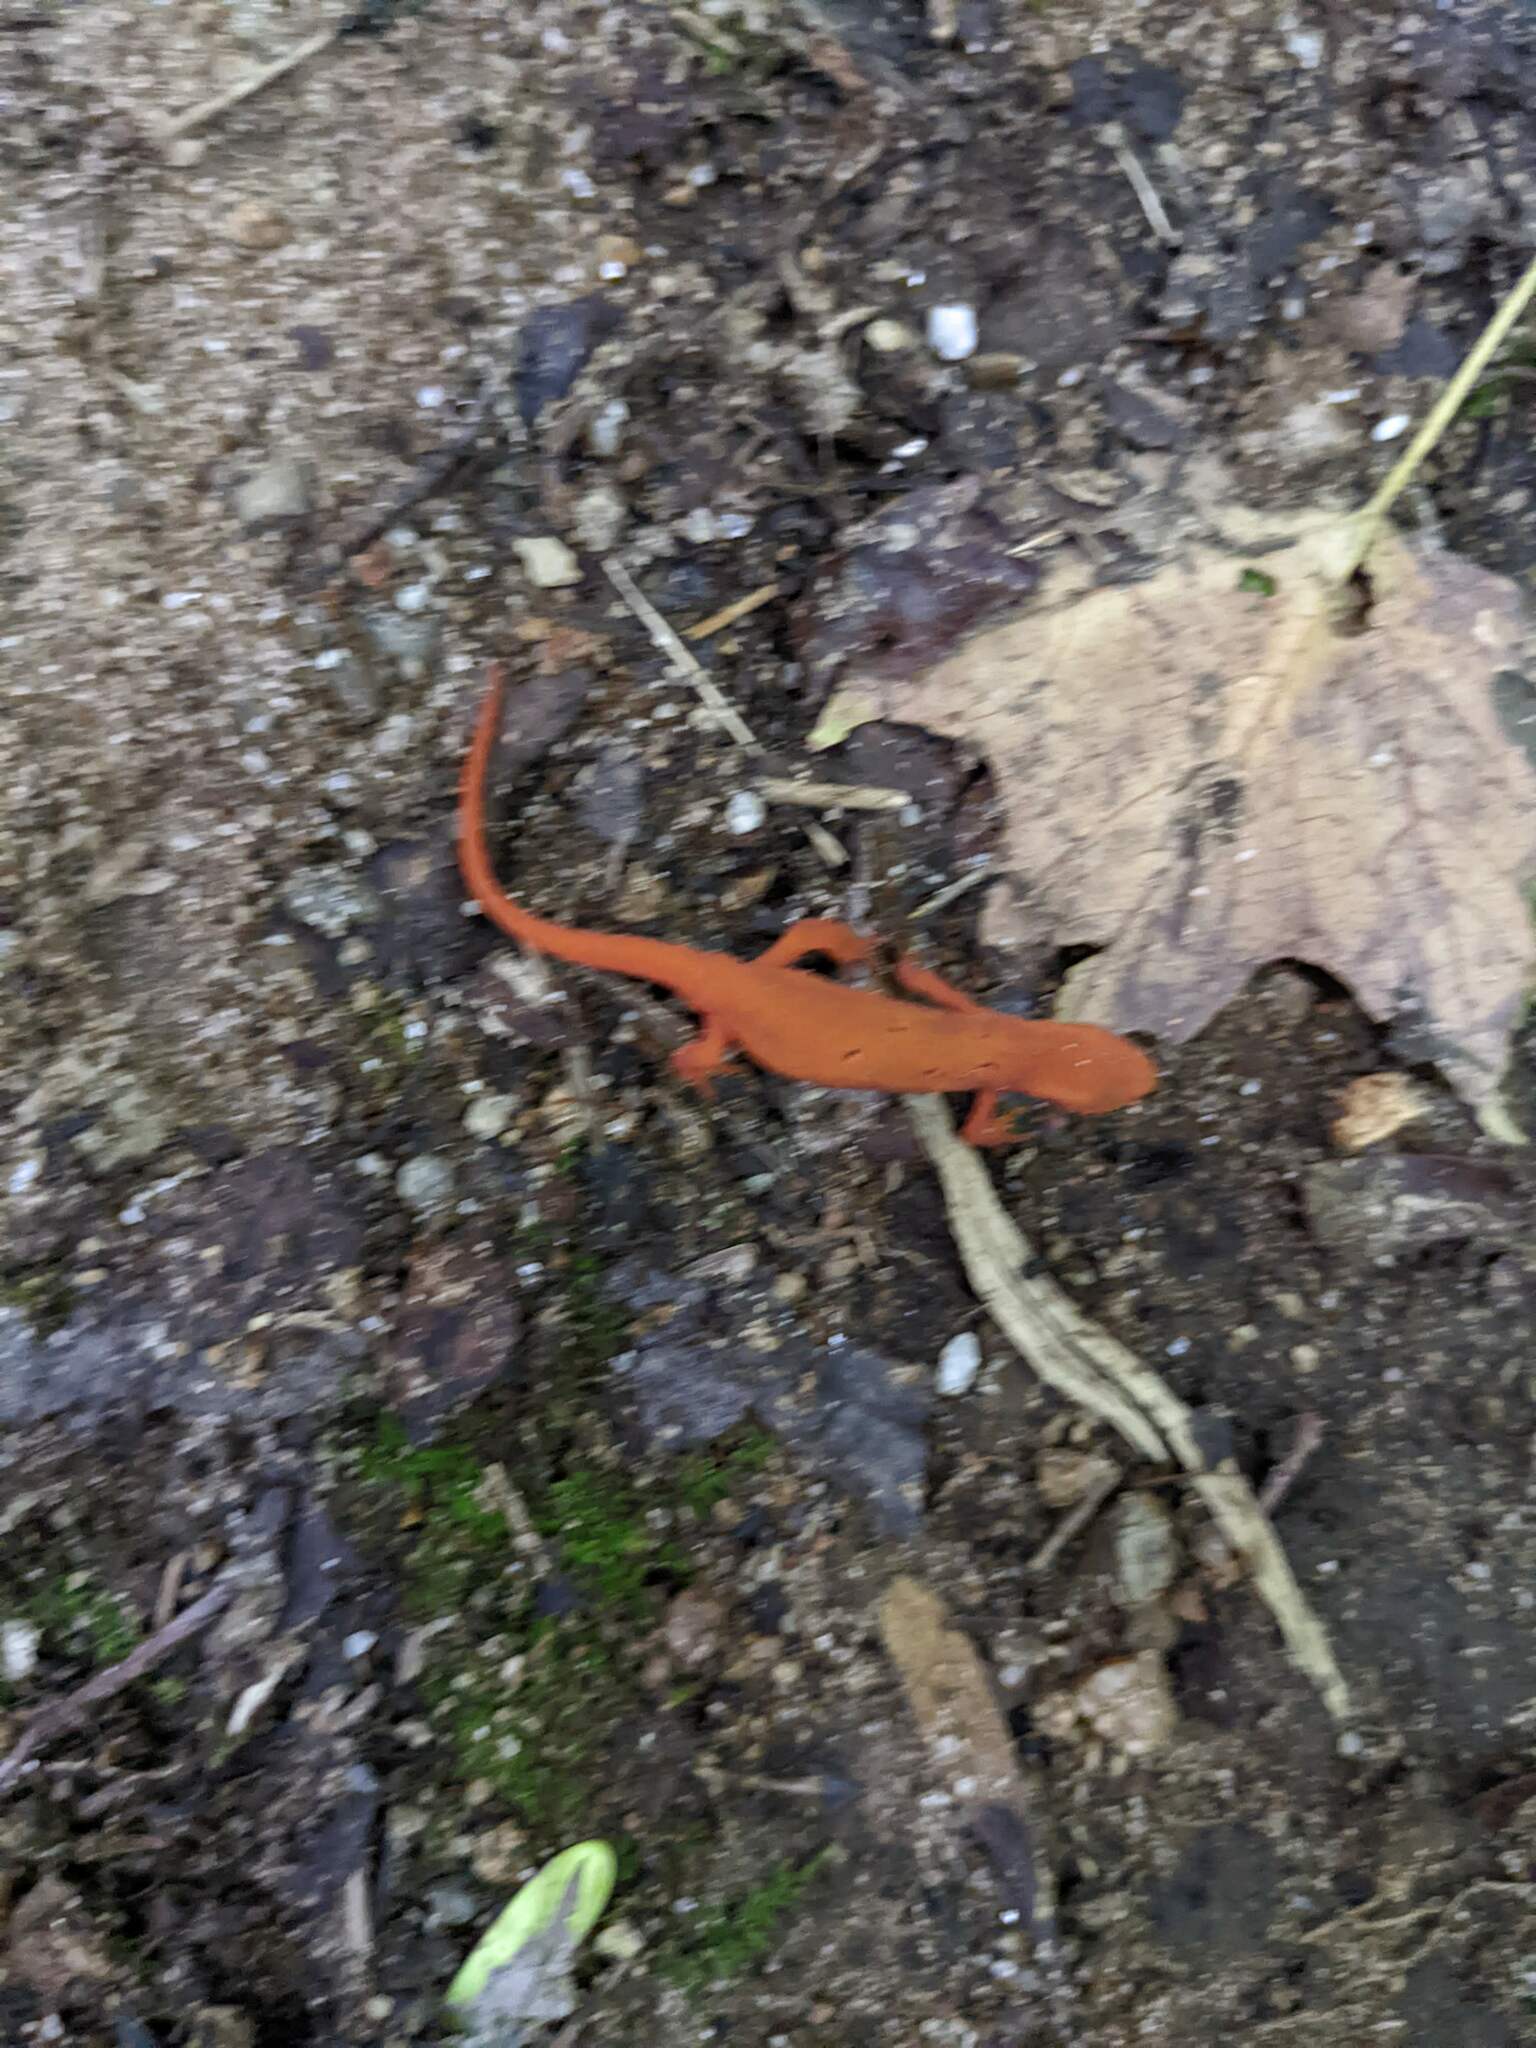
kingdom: Animalia
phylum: Chordata
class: Amphibia
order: Caudata
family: Salamandridae
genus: Notophthalmus
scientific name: Notophthalmus viridescens
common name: Eastern newt
